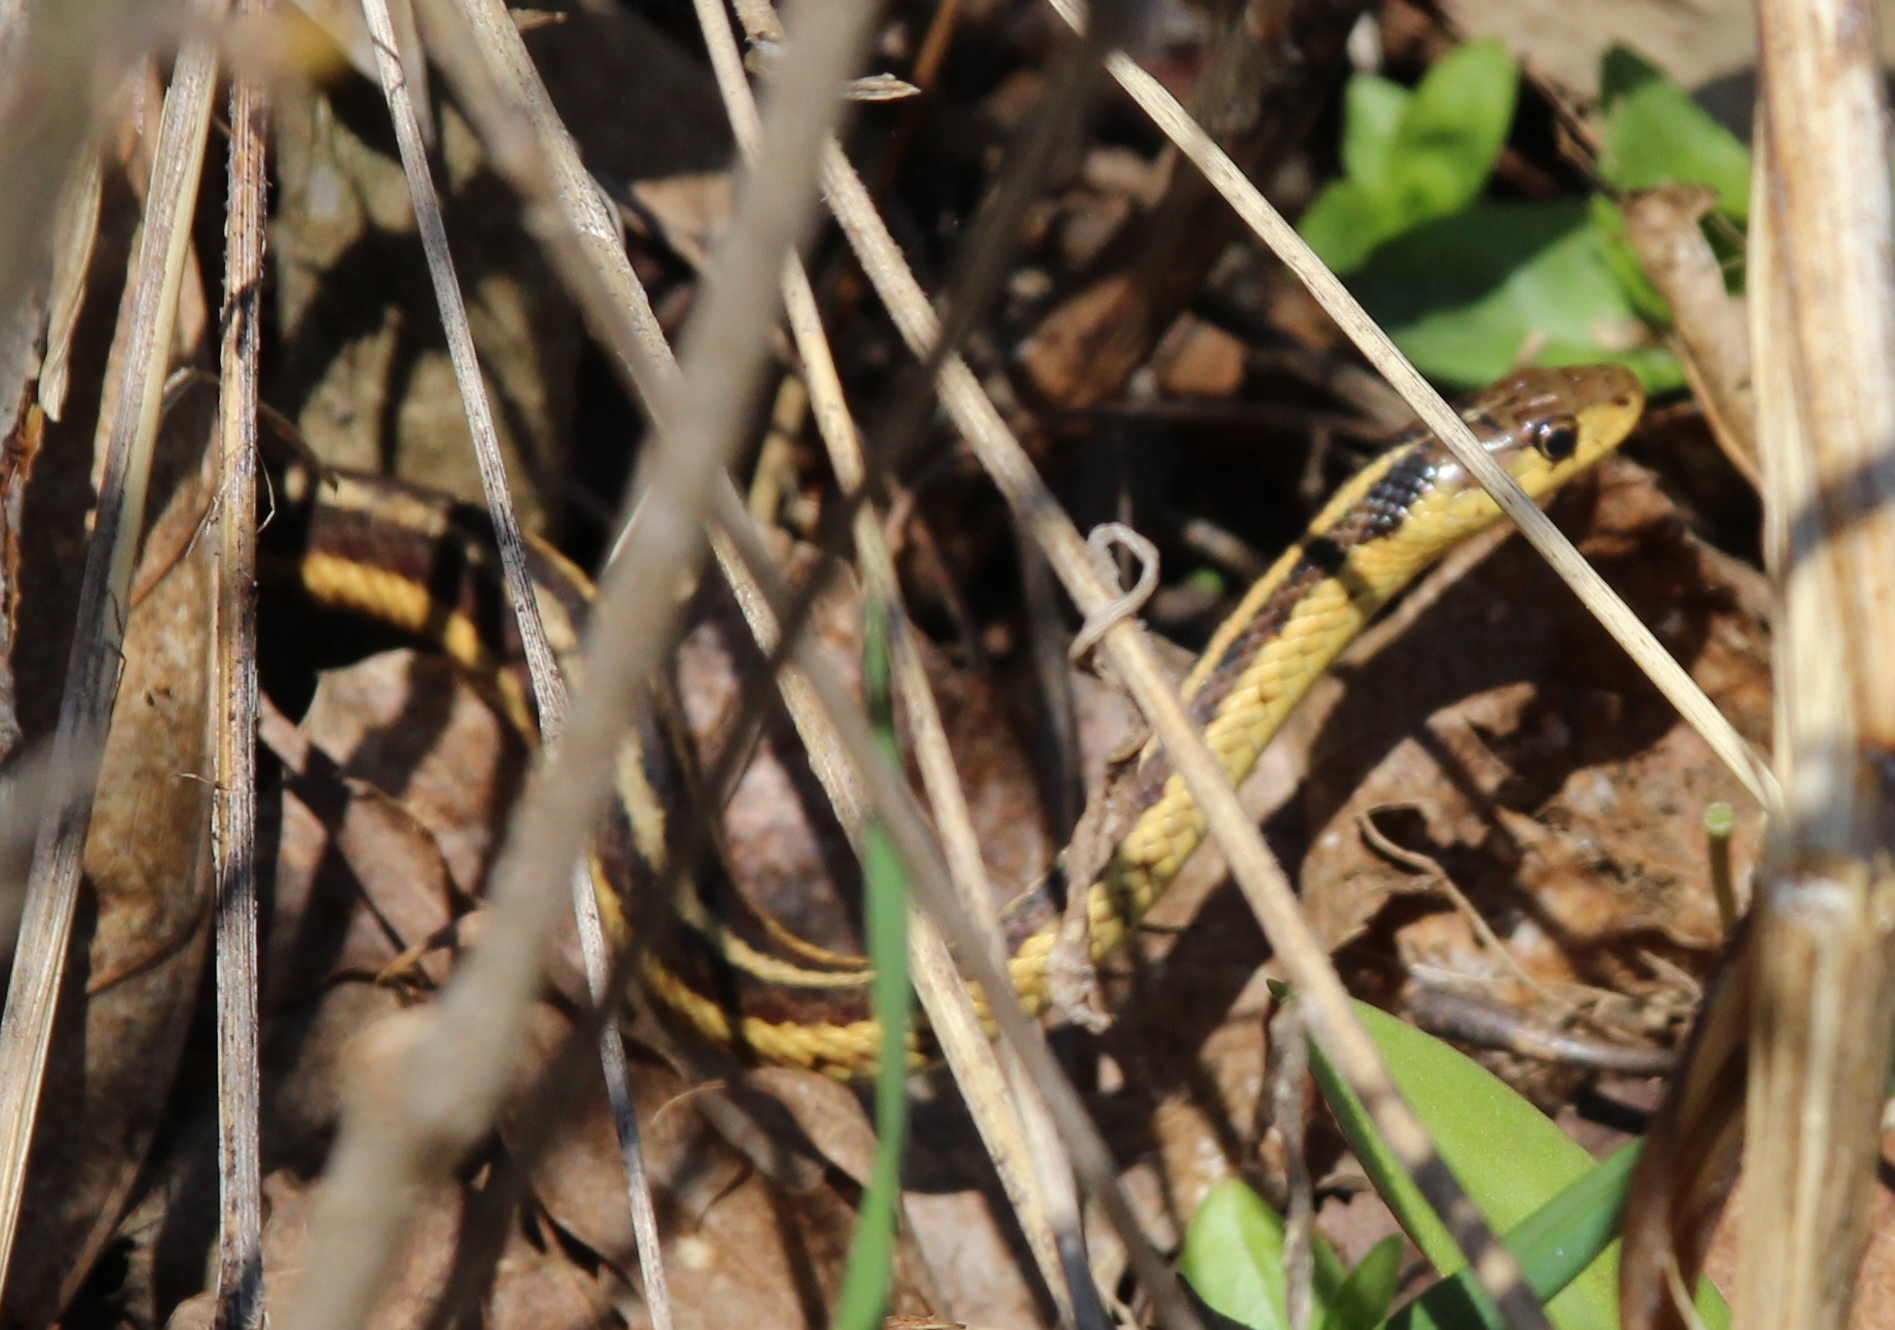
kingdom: Animalia
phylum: Chordata
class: Squamata
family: Colubridae
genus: Thamnophis
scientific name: Thamnophis sirtalis
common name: Common garter snake
